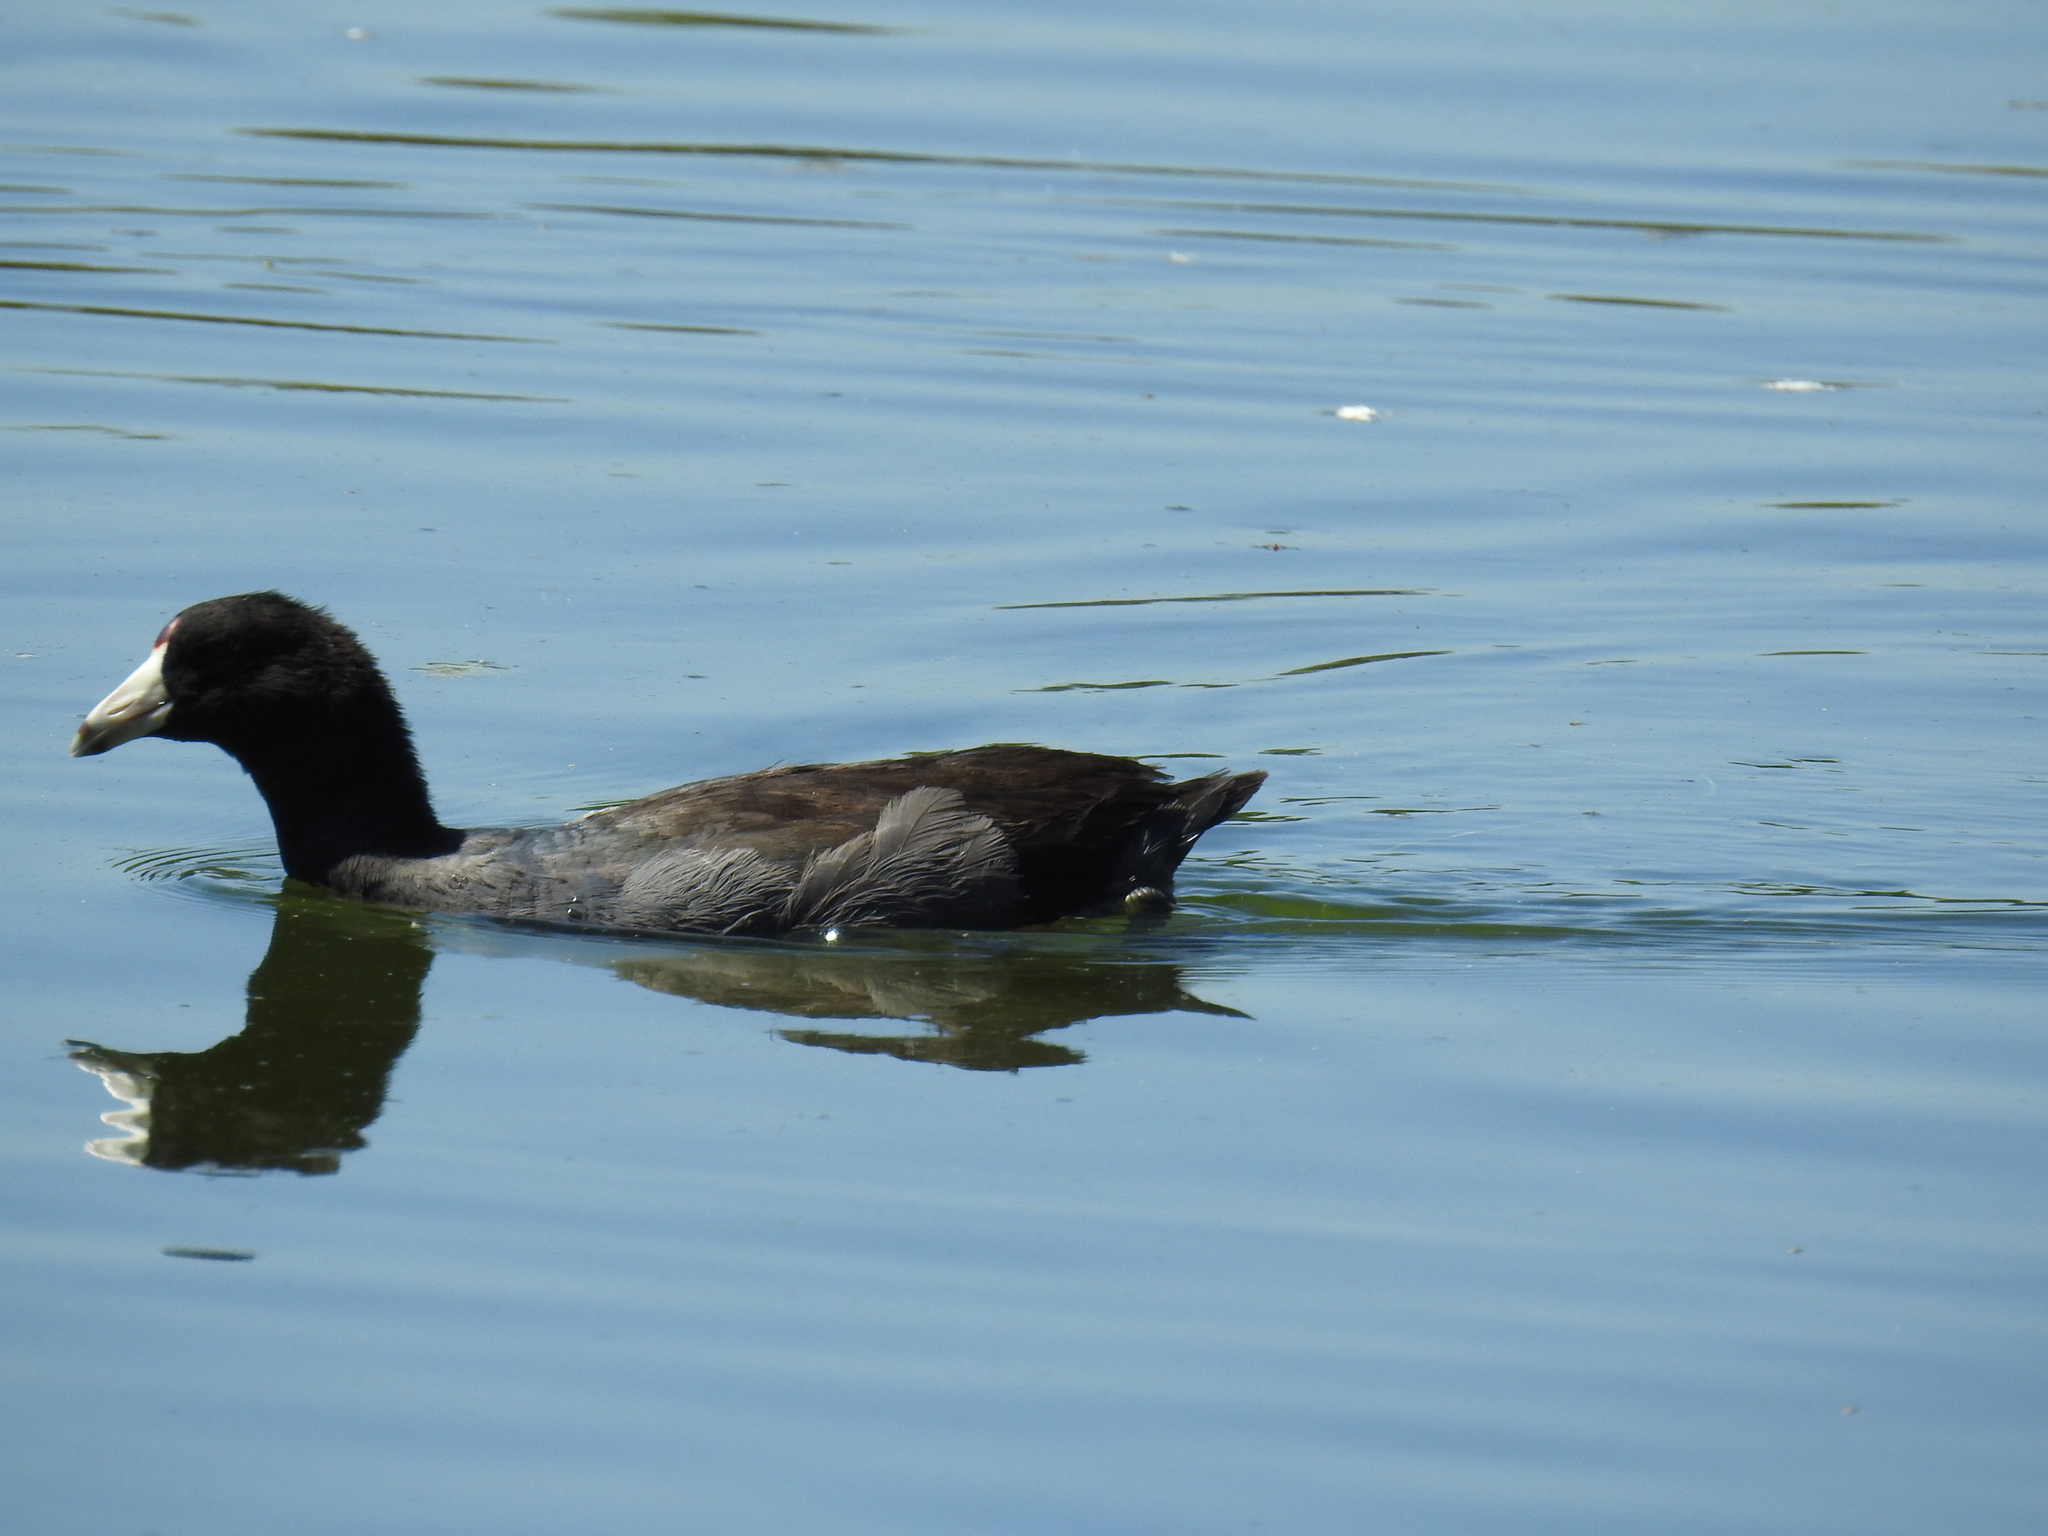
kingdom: Animalia
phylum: Chordata
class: Aves
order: Gruiformes
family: Rallidae
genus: Fulica
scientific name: Fulica americana
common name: American coot
